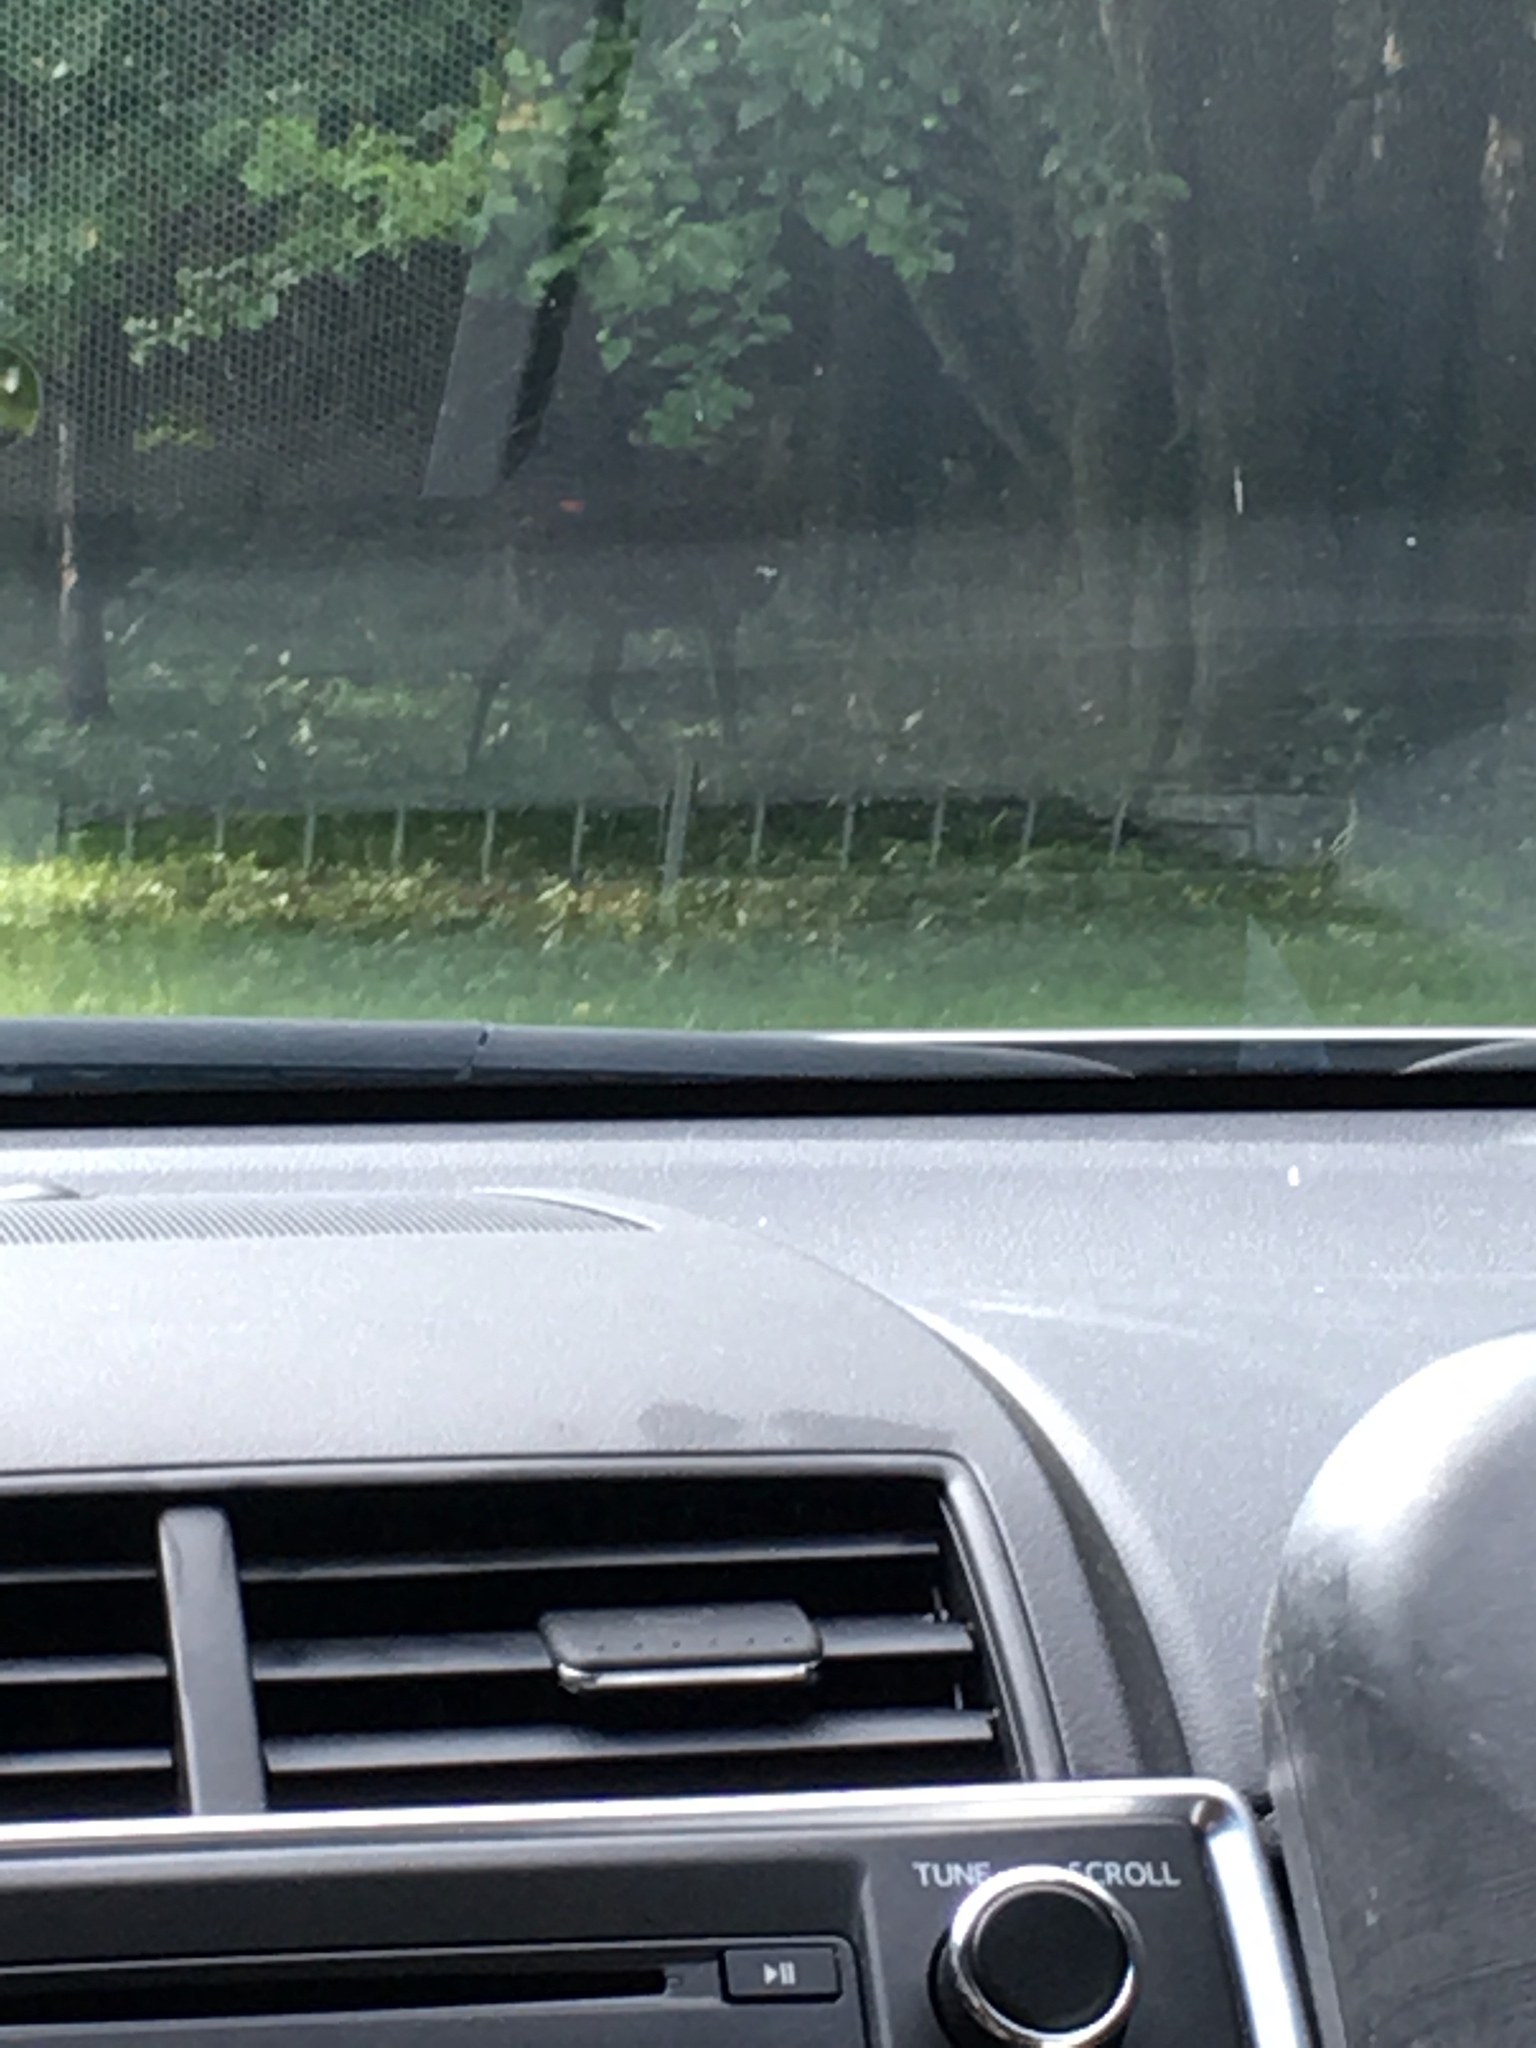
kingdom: Animalia
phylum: Chordata
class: Mammalia
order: Artiodactyla
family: Cervidae
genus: Odocoileus
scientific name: Odocoileus virginianus
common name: White-tailed deer
